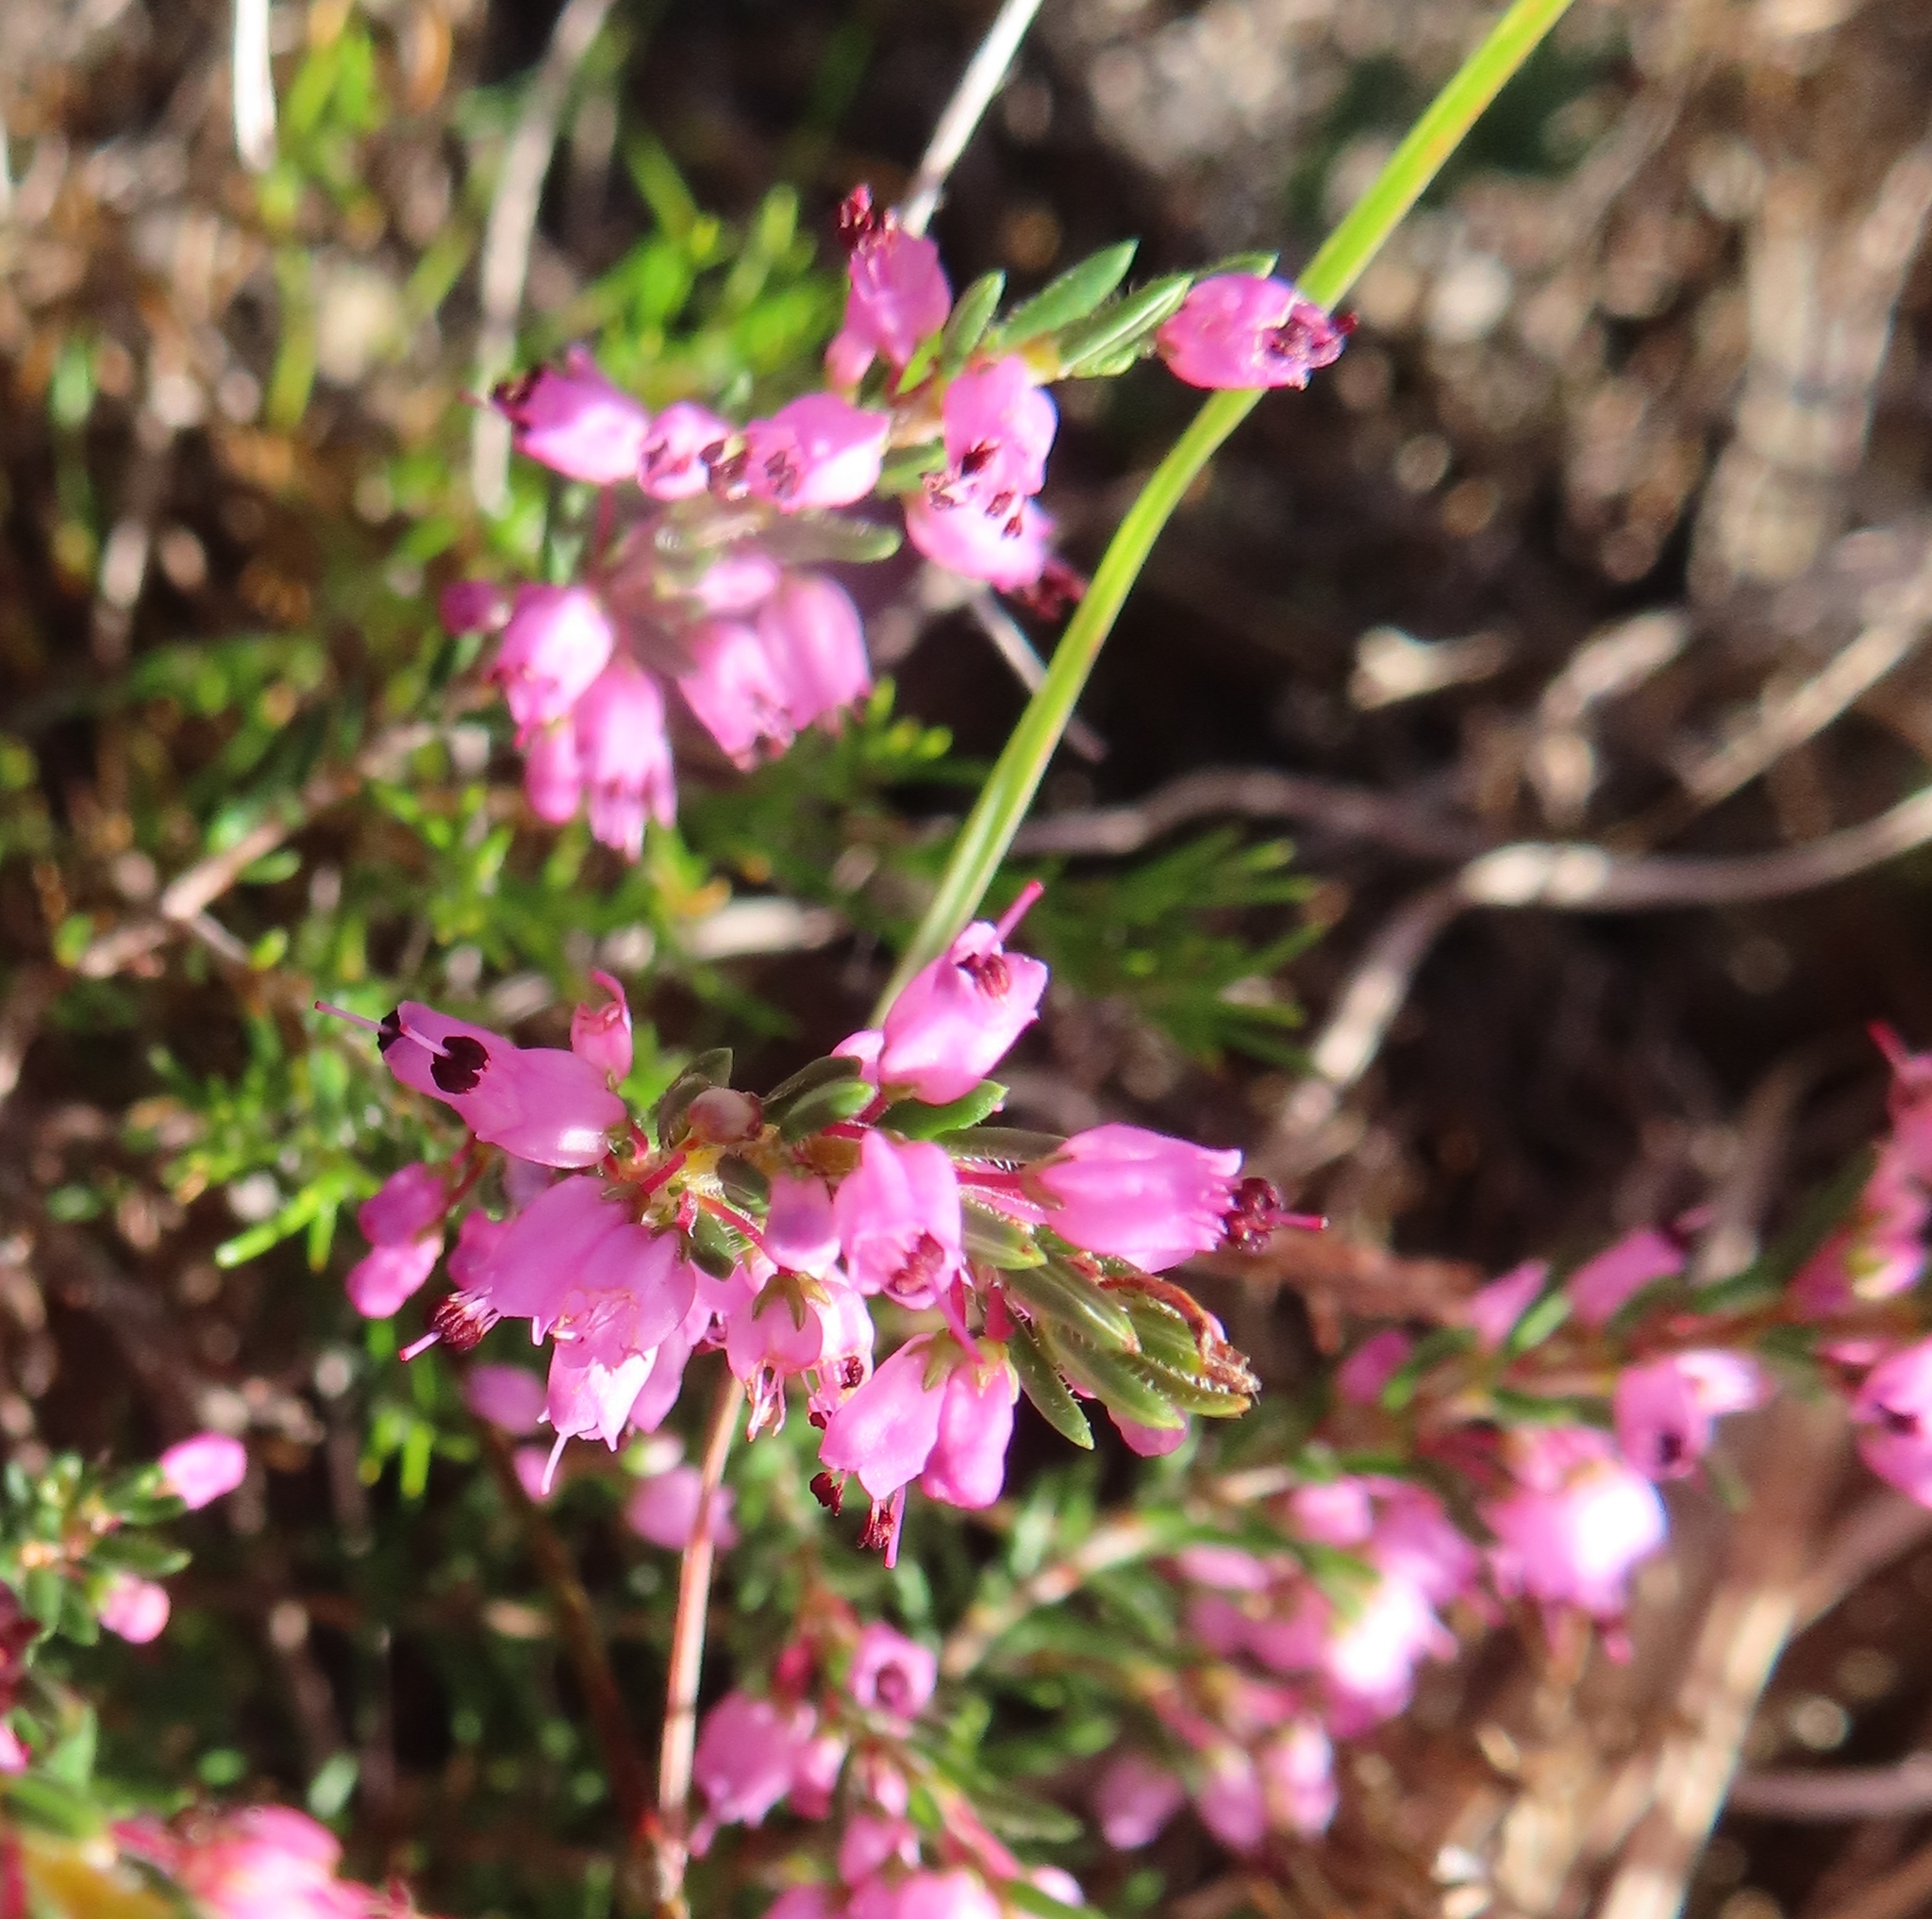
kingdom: Plantae
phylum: Tracheophyta
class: Magnoliopsida
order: Ericales
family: Ericaceae
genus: Erica
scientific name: Erica nudiflora
